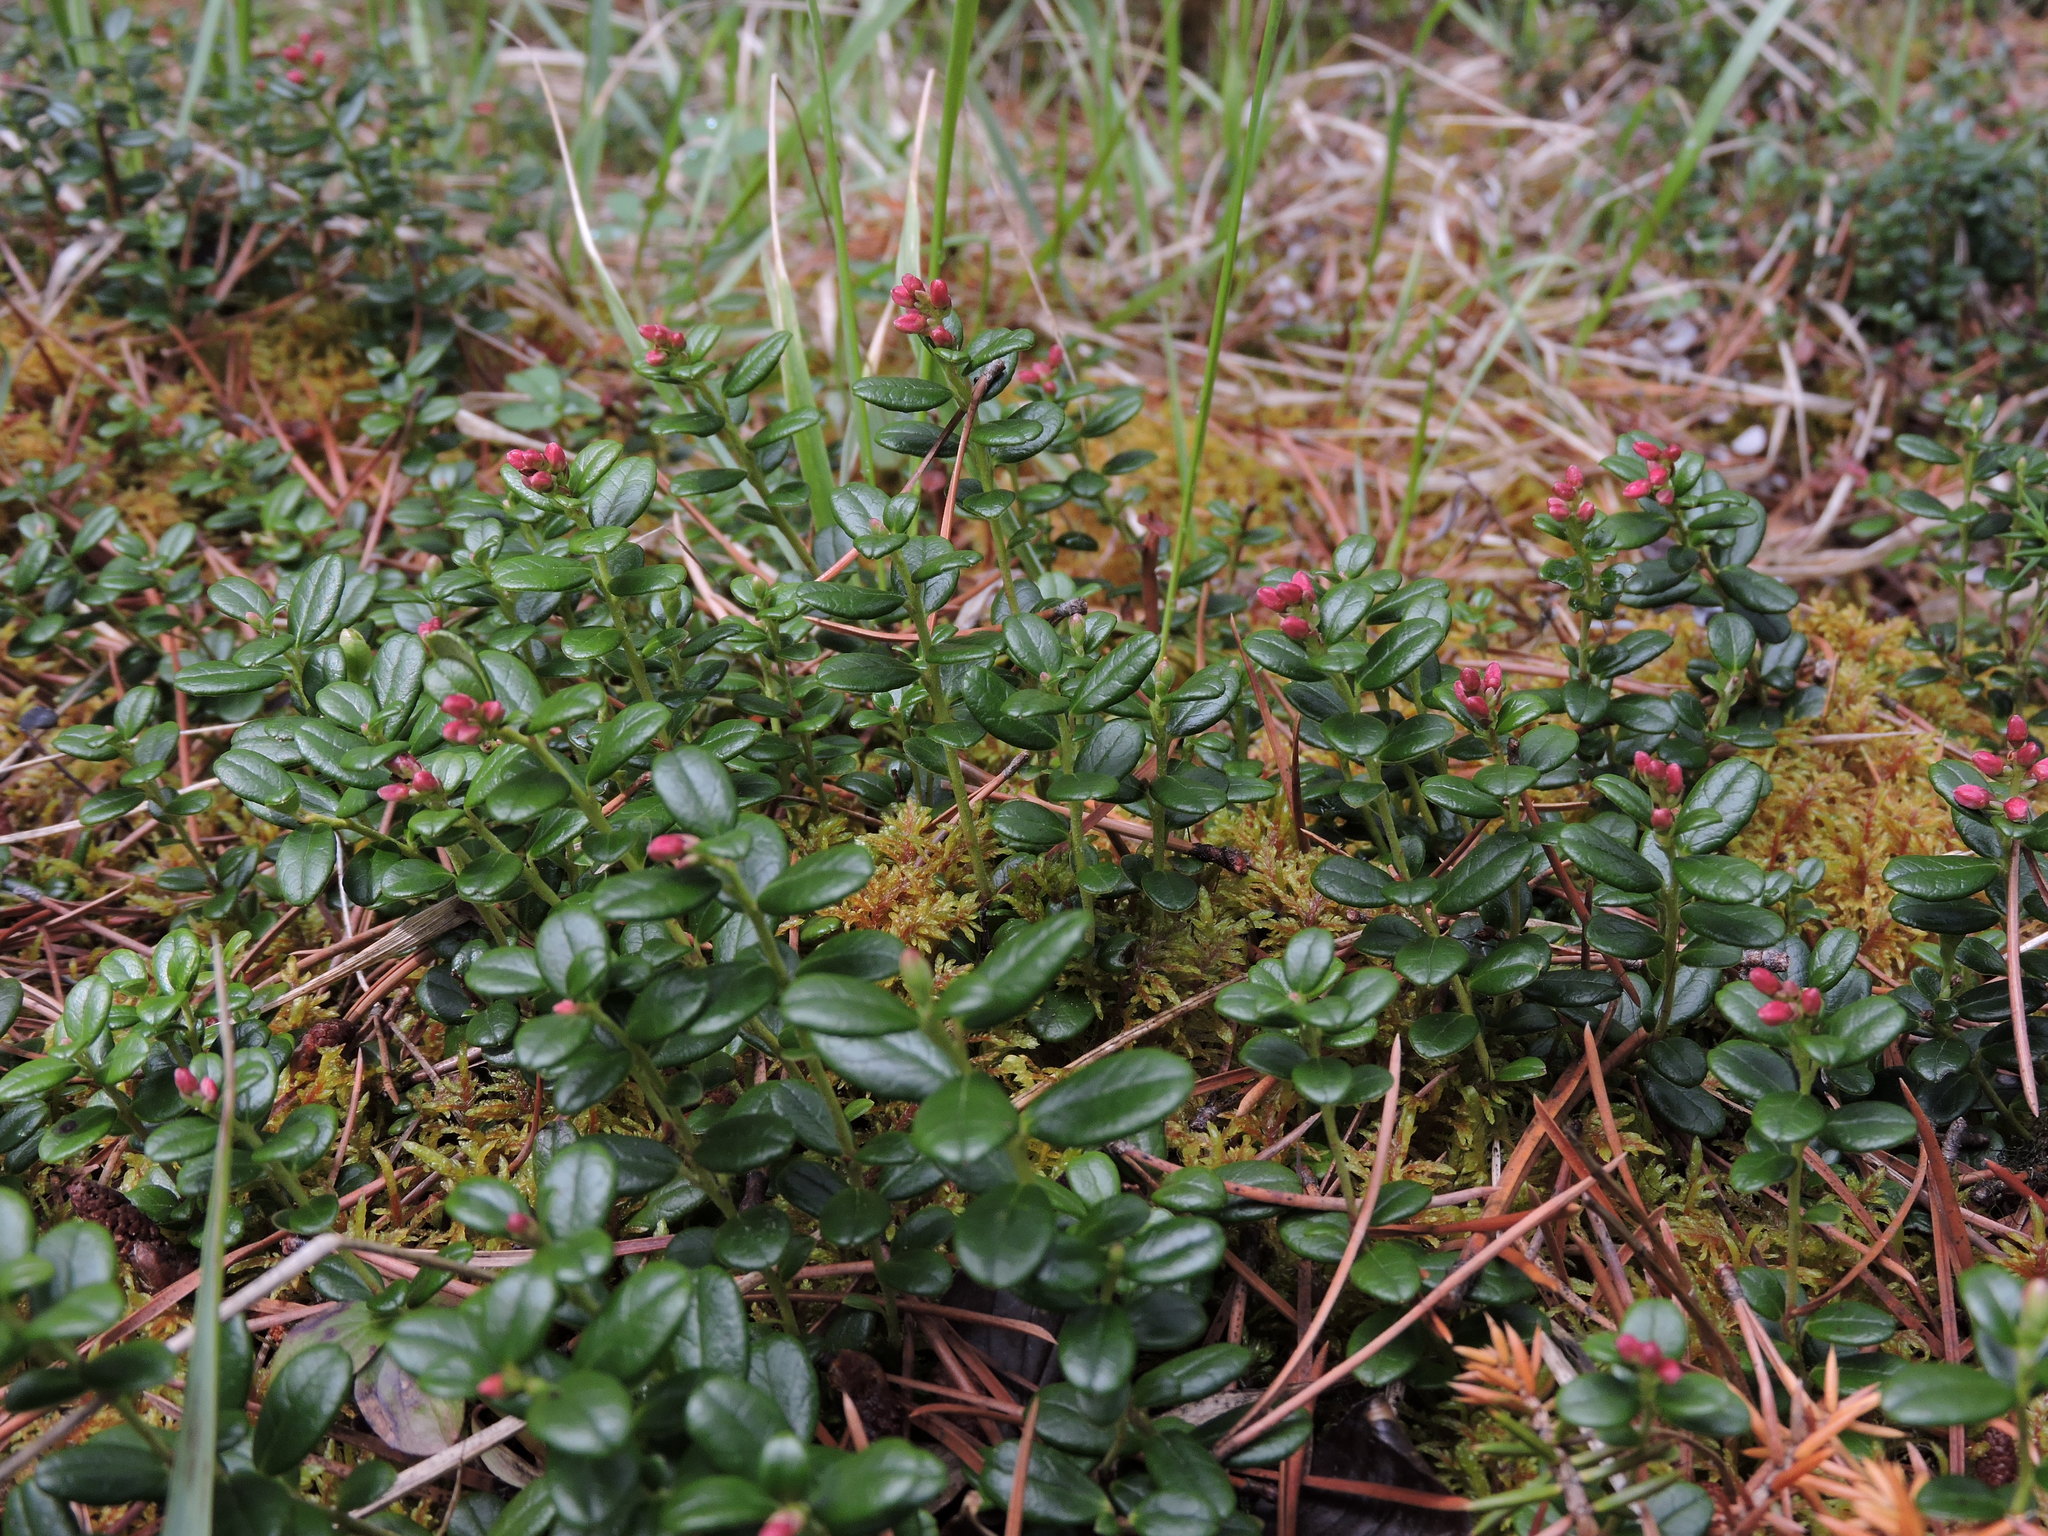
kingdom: Plantae
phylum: Tracheophyta
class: Magnoliopsida
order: Ericales
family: Ericaceae
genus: Vaccinium
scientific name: Vaccinium vitis-idaea
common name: Cowberry
